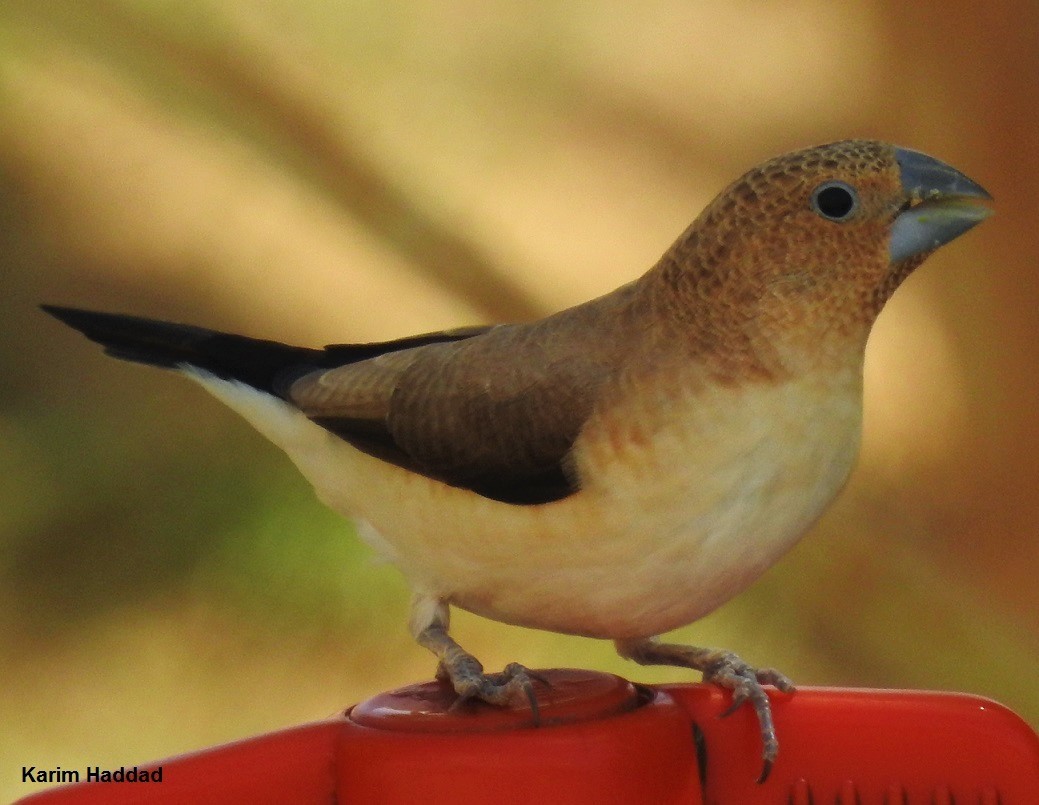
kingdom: Animalia
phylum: Chordata
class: Aves
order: Passeriformes
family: Estrildidae
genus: Euodice
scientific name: Euodice cantans
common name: African silverbill
